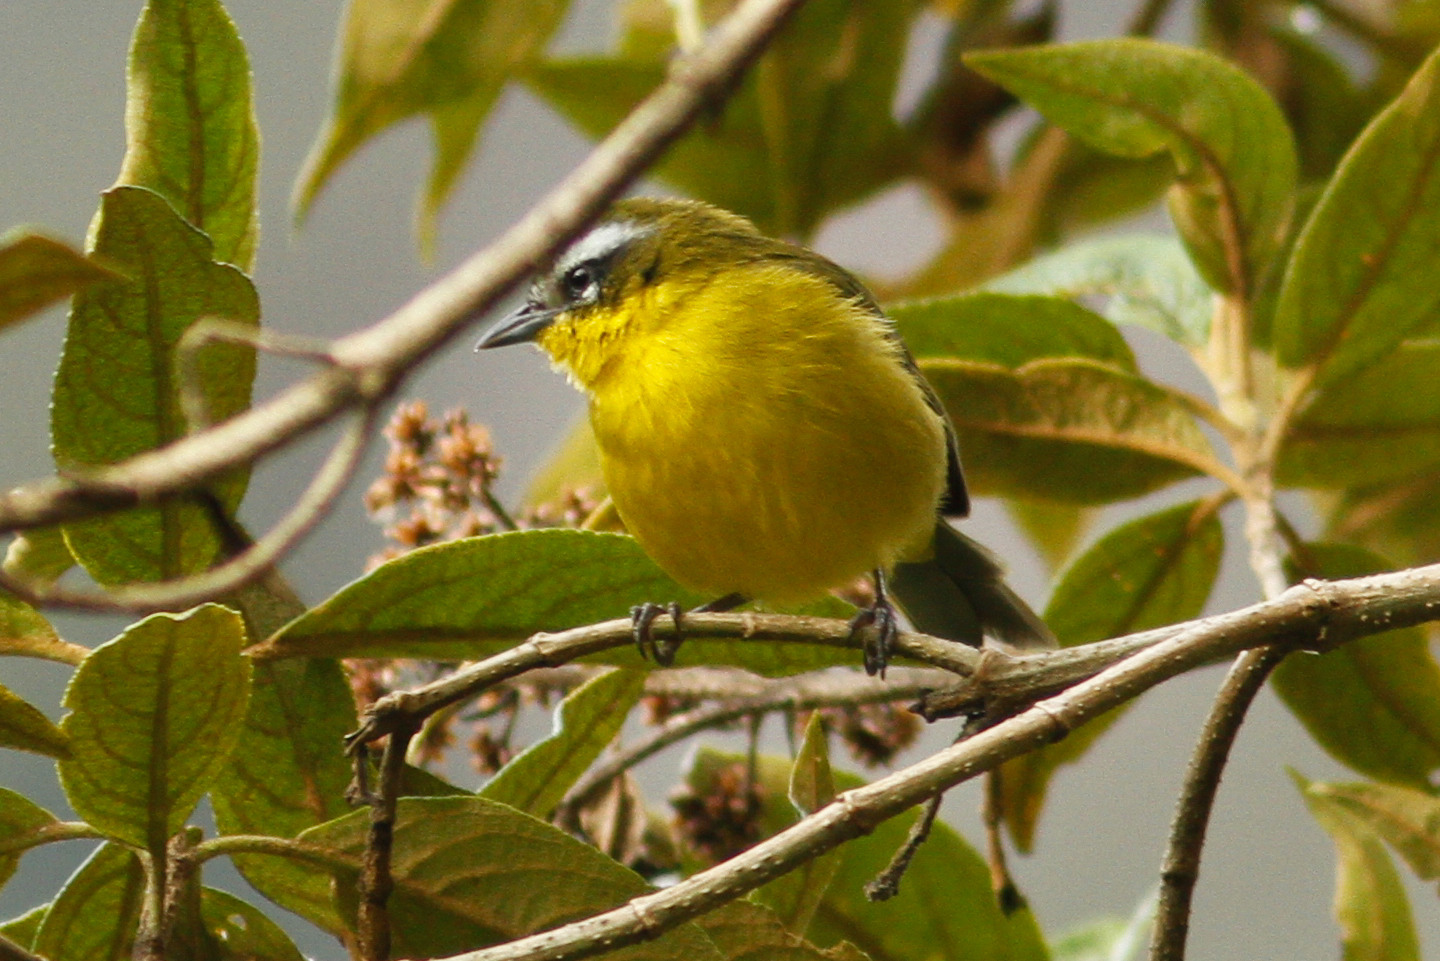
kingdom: Animalia
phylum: Chordata
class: Aves
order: Passeriformes
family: Thraupidae
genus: Thlypopsis
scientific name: Thlypopsis superciliaris
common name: Superciliaried hemispingus
